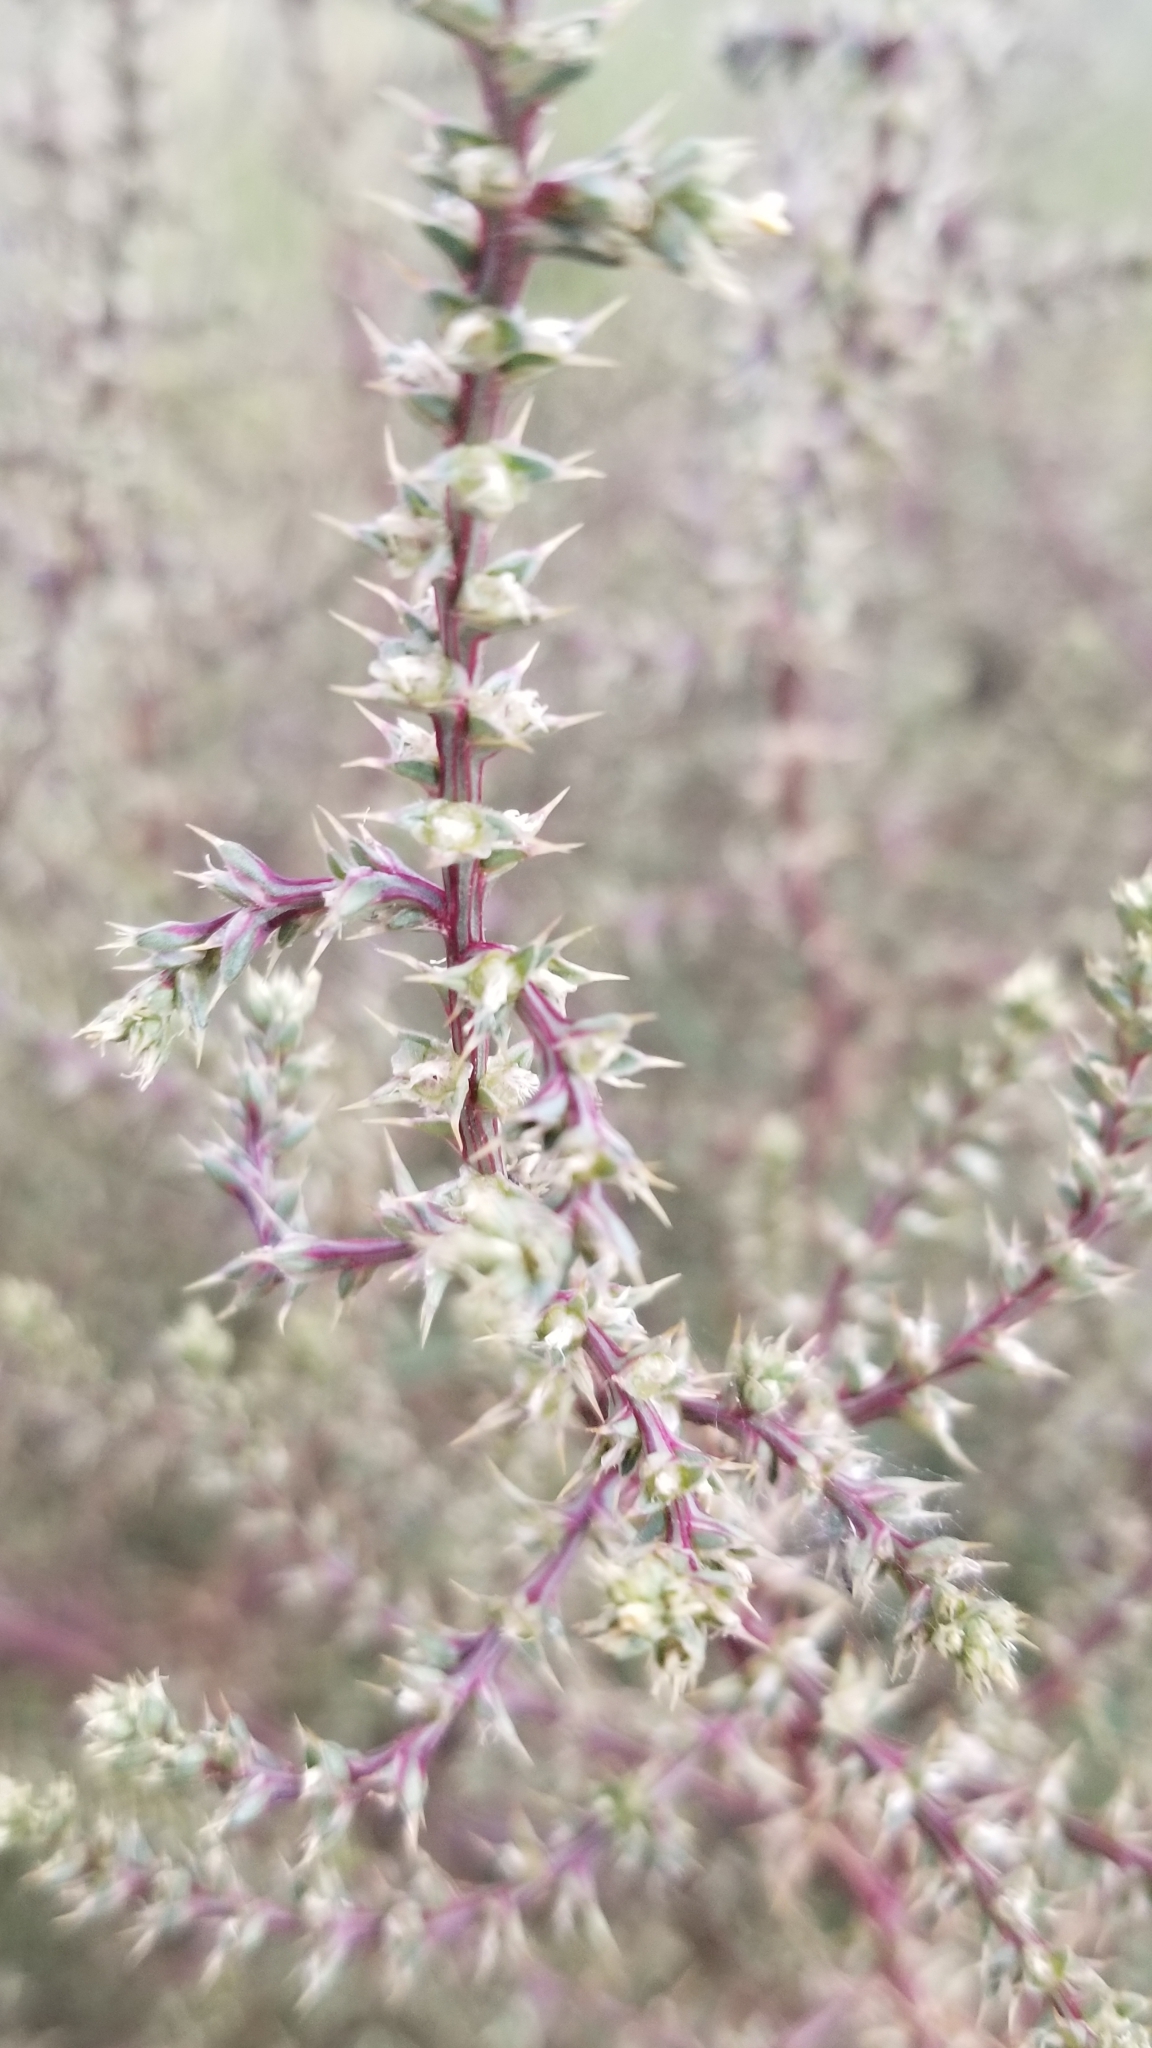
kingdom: Plantae
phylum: Tracheophyta
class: Magnoliopsida
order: Caryophyllales
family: Amaranthaceae
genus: Salsola
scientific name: Salsola tragus
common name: Prickly russian thistle
